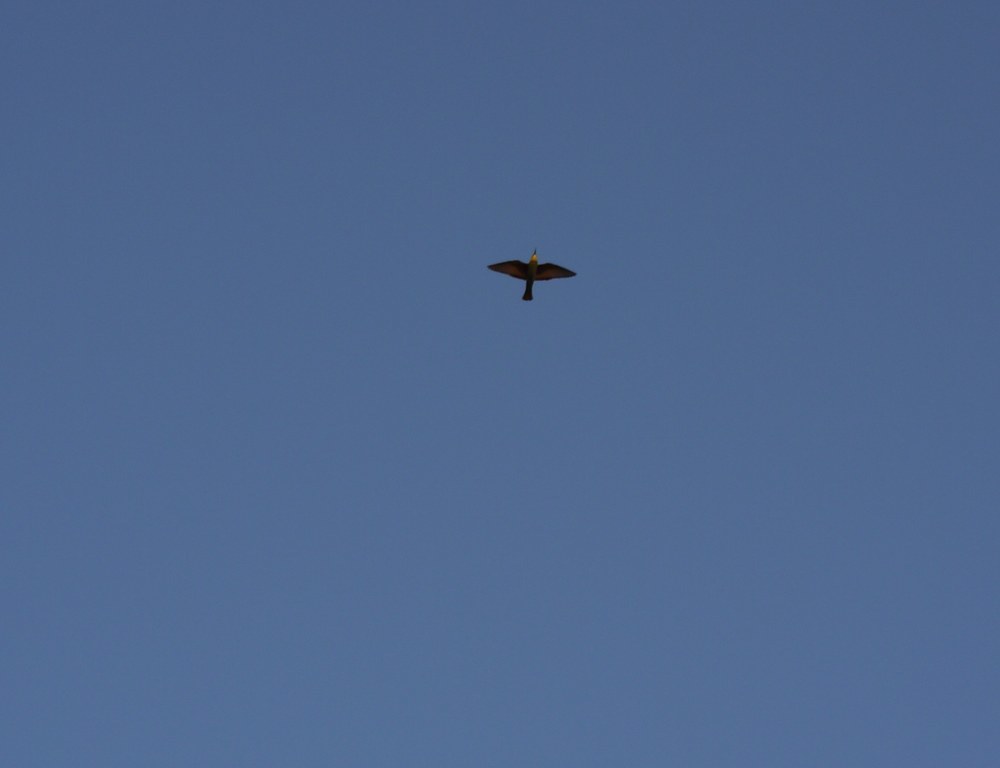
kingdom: Animalia
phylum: Chordata
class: Aves
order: Coraciiformes
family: Meropidae
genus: Merops
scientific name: Merops apiaster
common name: European bee-eater
